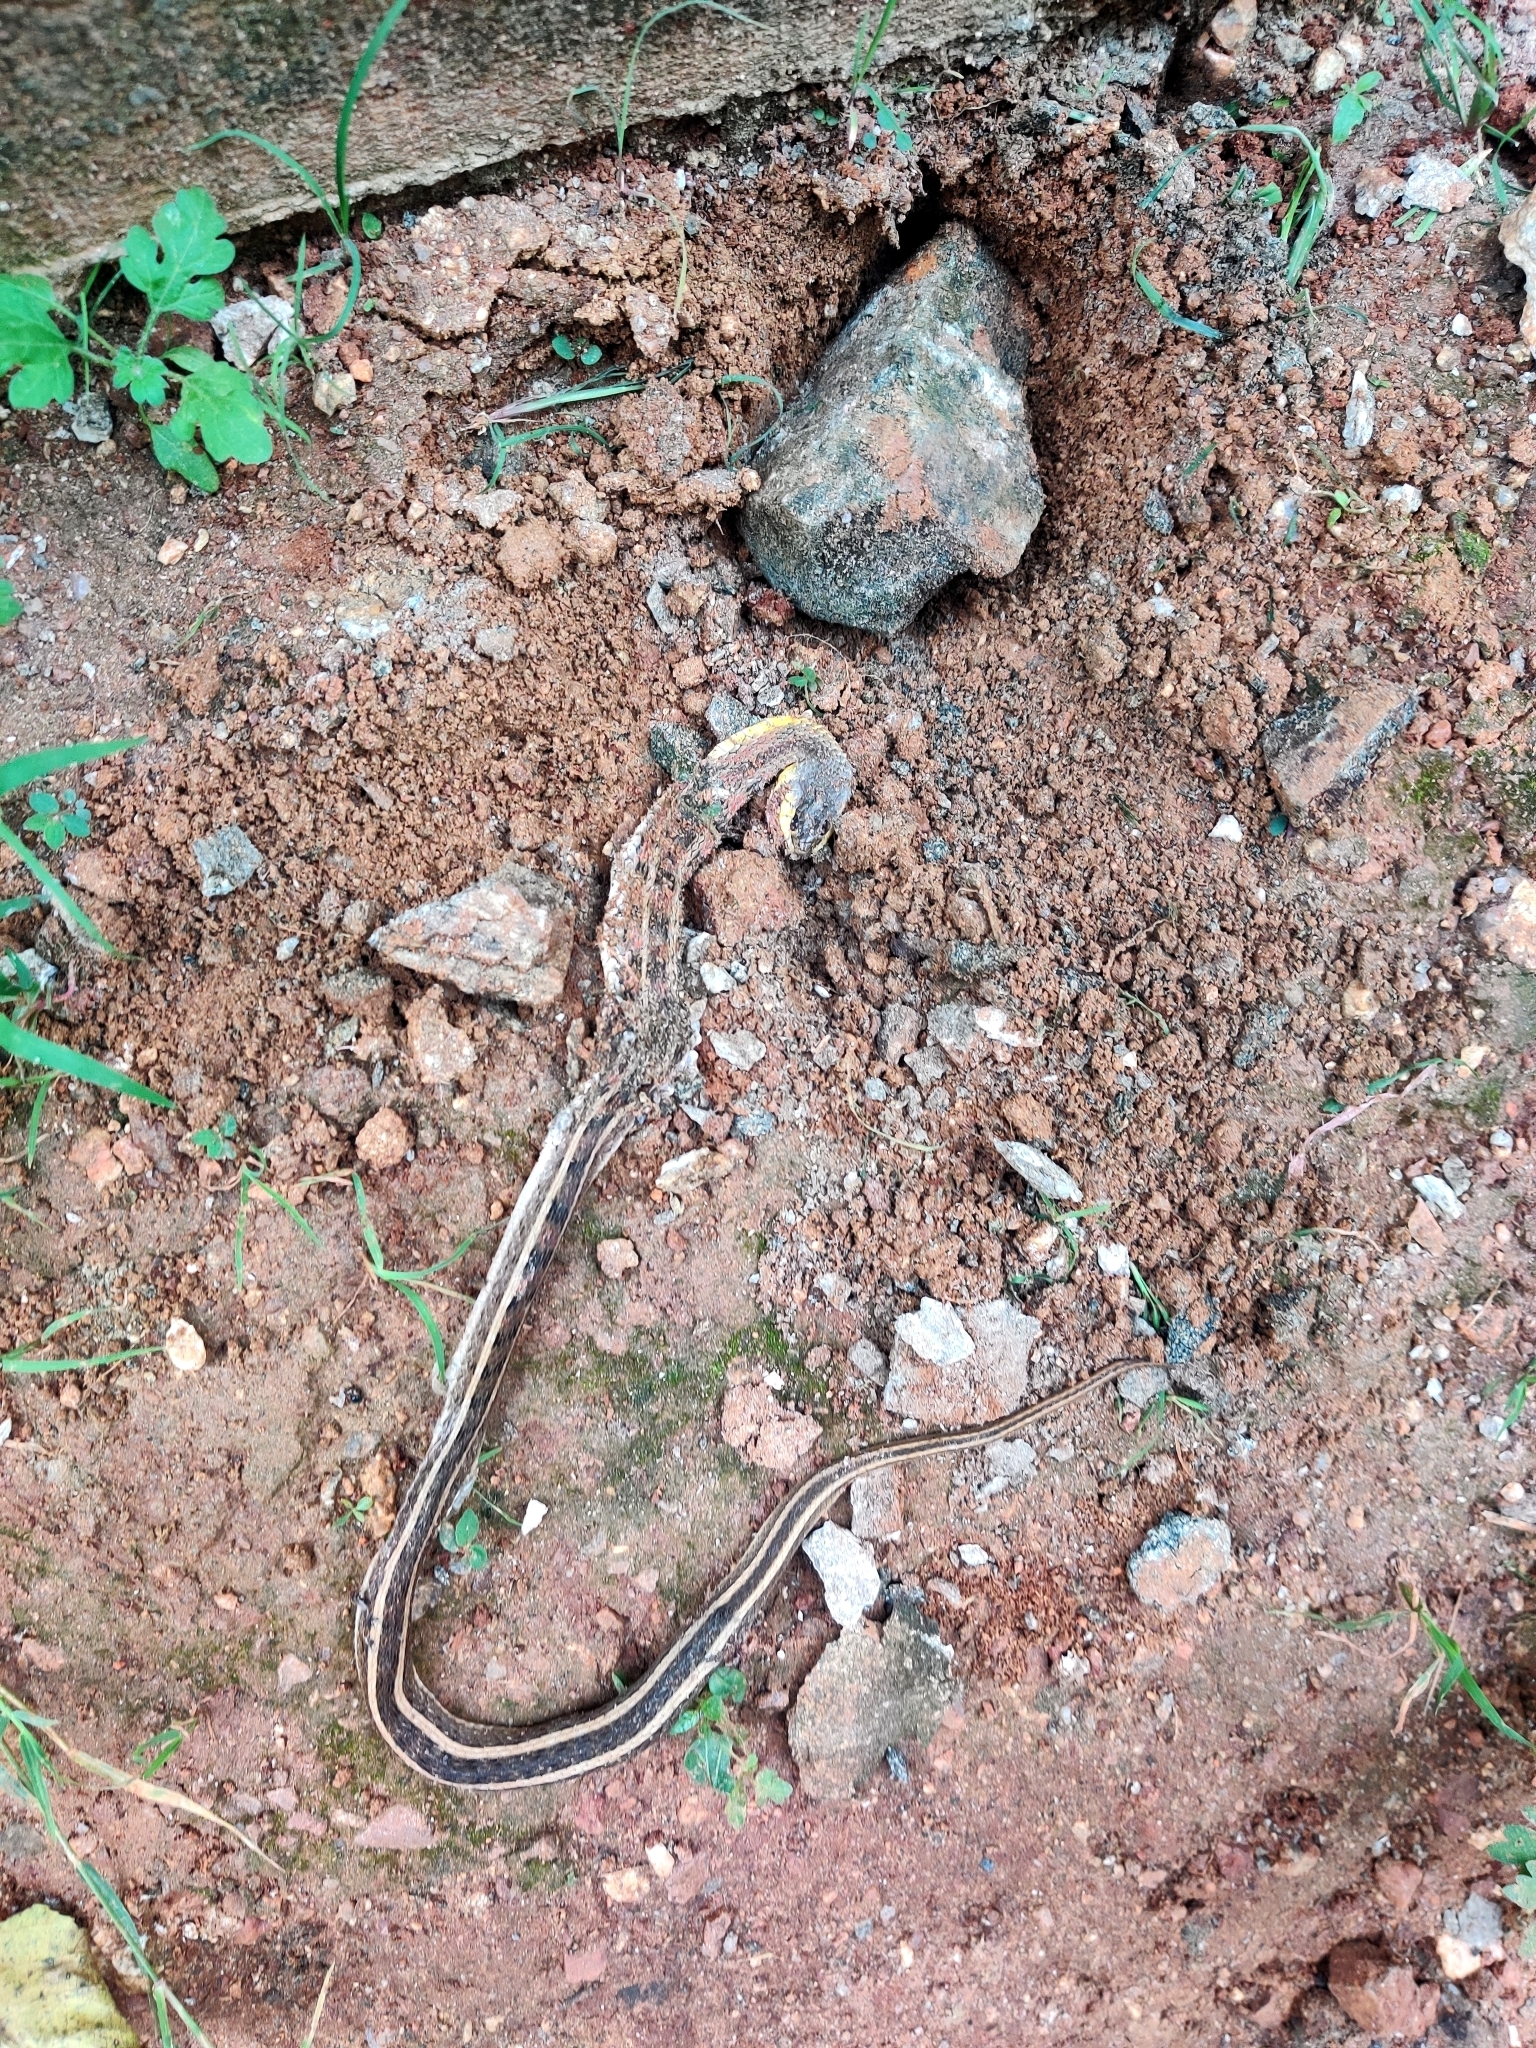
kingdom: Animalia
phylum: Chordata
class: Squamata
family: Colubridae
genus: Amphiesma
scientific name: Amphiesma stolatum
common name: Buff striped keelback
